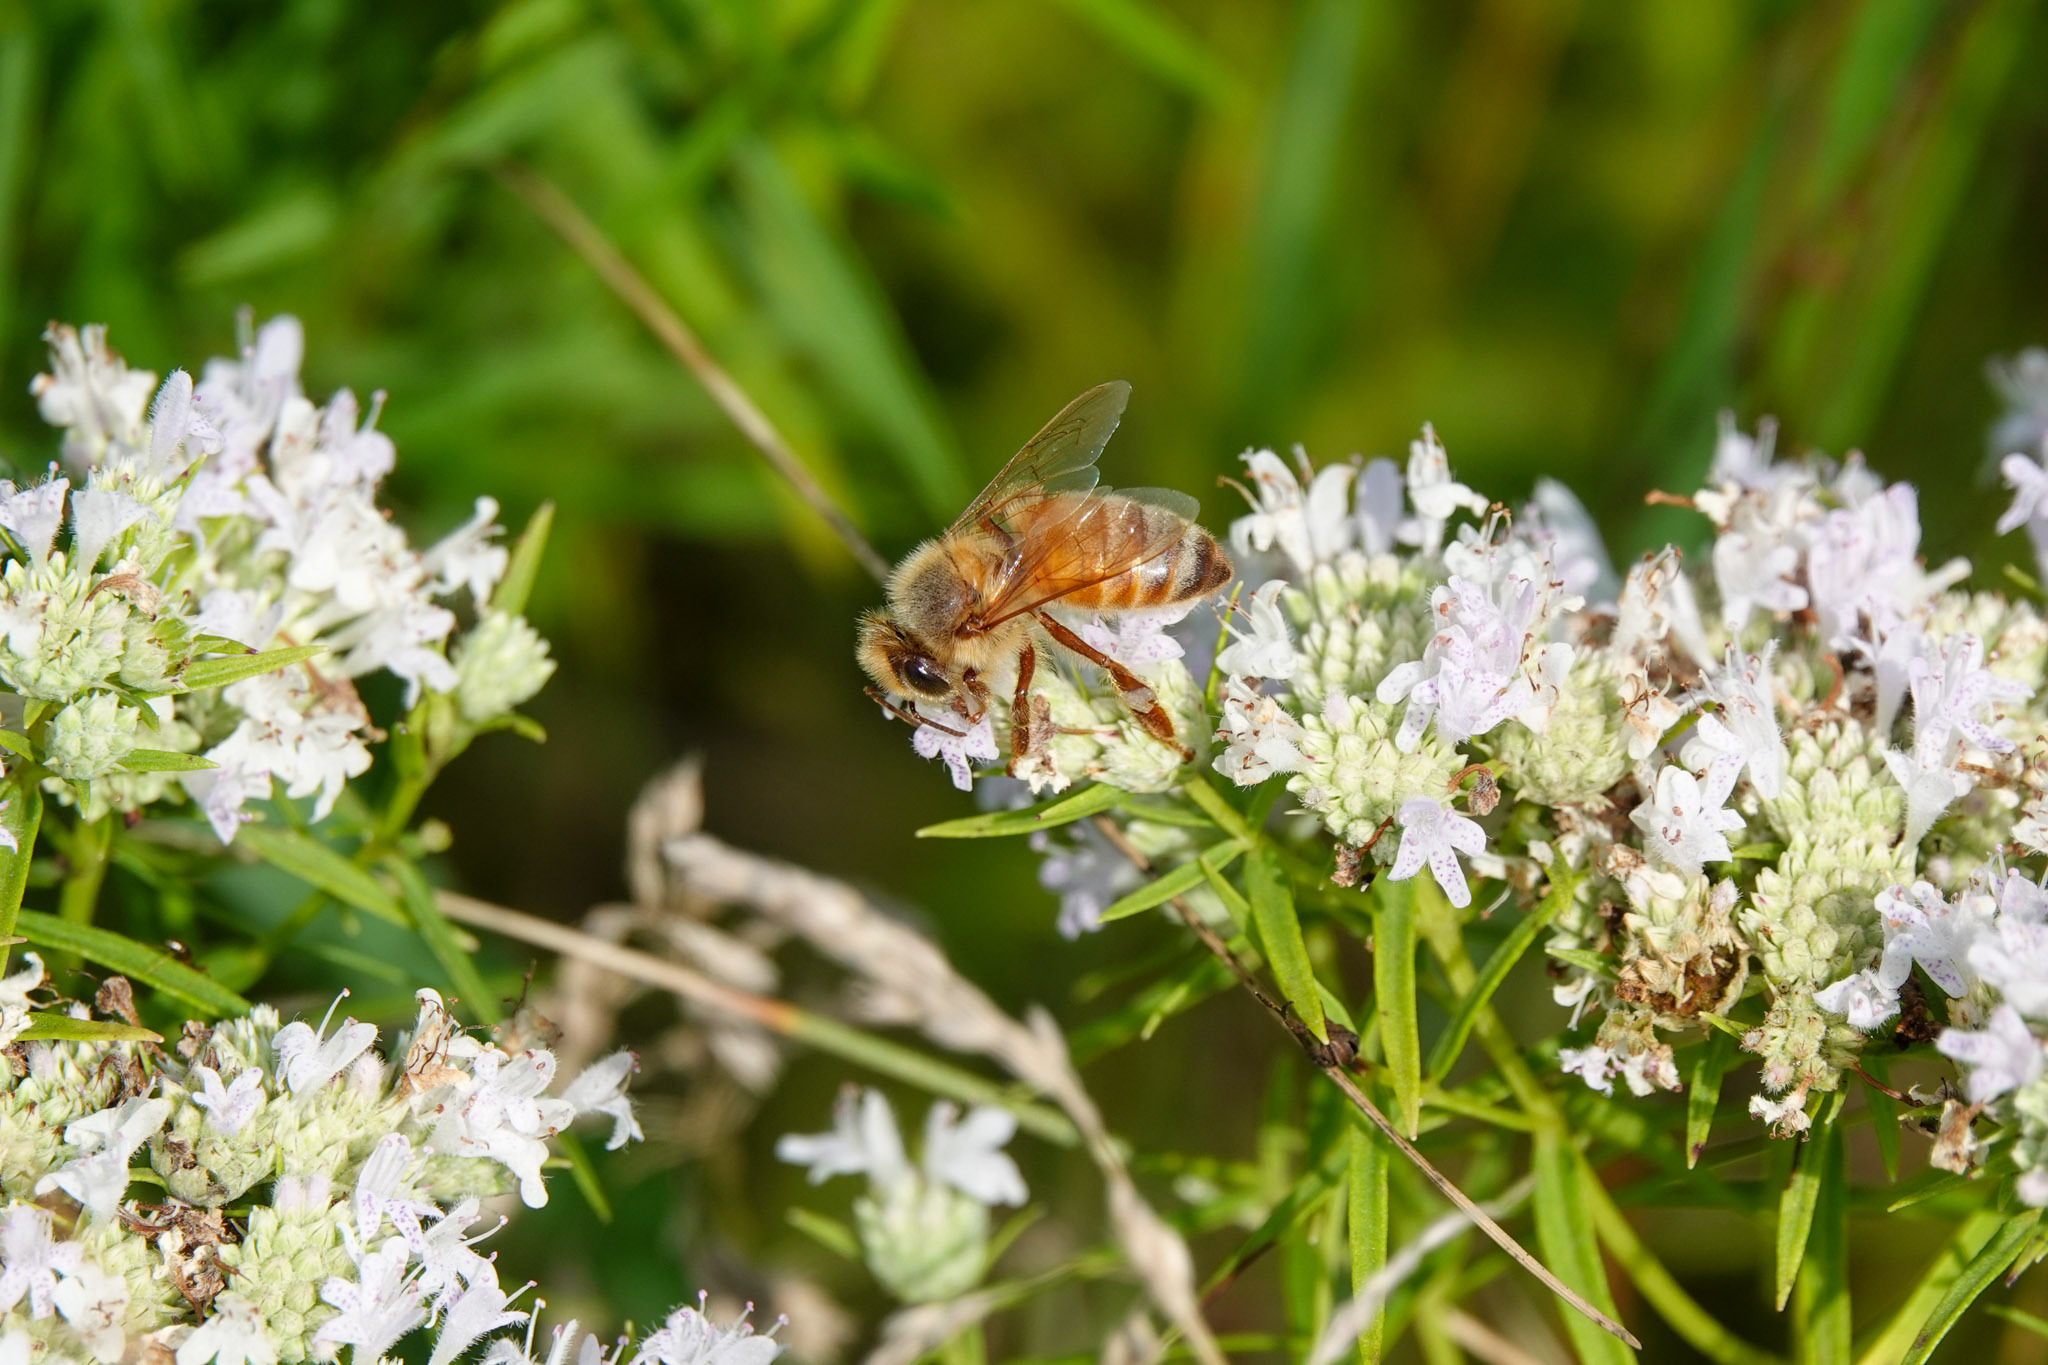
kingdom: Animalia
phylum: Arthropoda
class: Insecta
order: Hymenoptera
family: Apidae
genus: Apis
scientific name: Apis mellifera
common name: Honey bee
